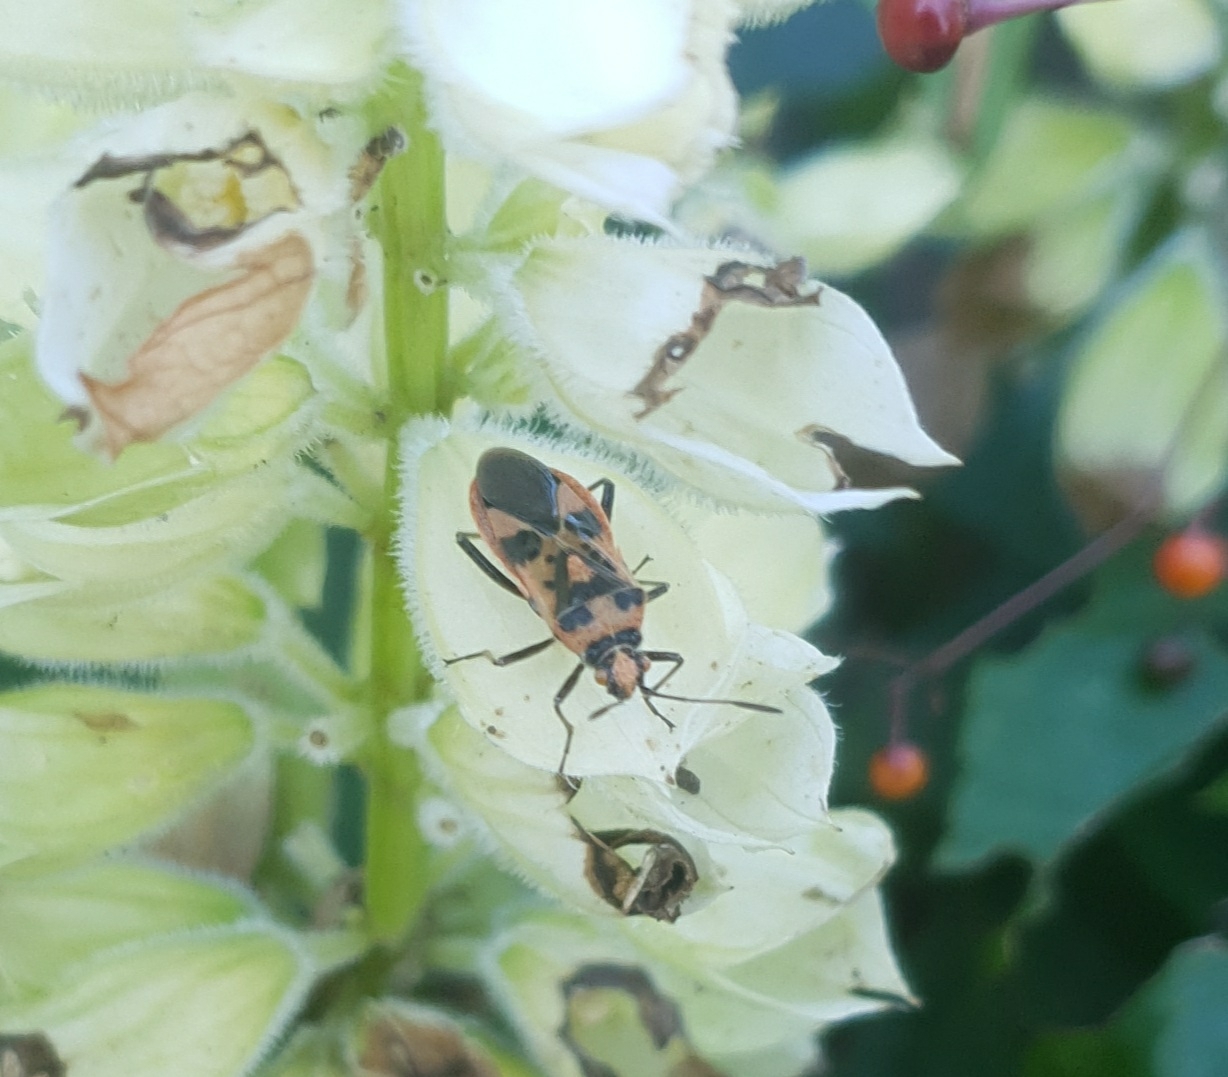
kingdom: Animalia
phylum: Arthropoda
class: Insecta
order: Hemiptera
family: Rhopalidae
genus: Corizus
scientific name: Corizus hyoscyami
